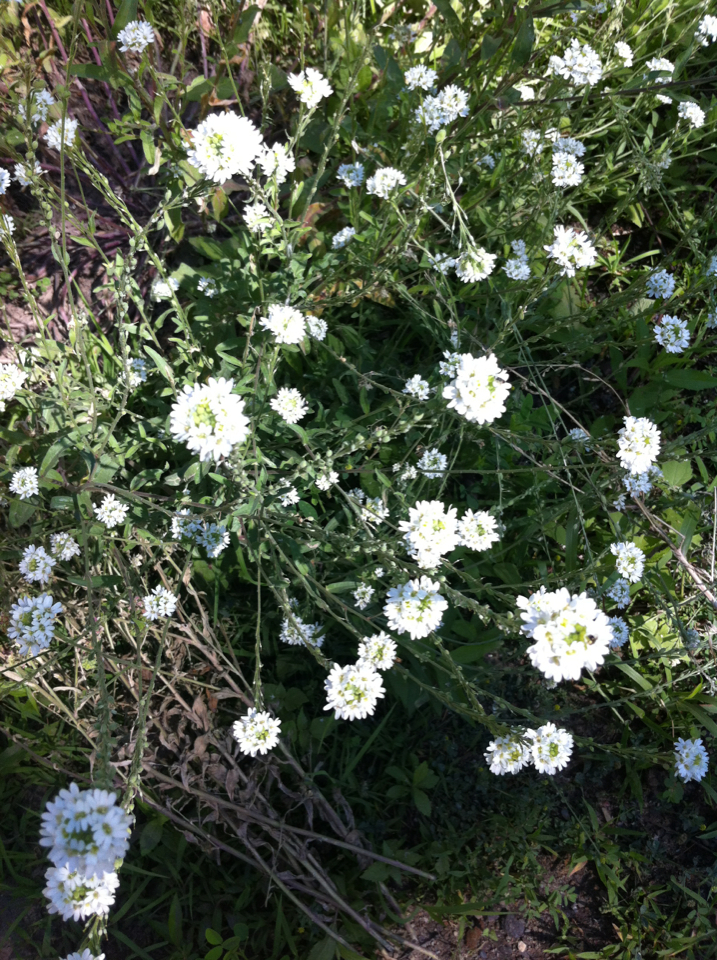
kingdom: Plantae
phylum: Tracheophyta
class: Magnoliopsida
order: Brassicales
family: Brassicaceae
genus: Berteroa
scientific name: Berteroa incana
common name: Hoary alison
